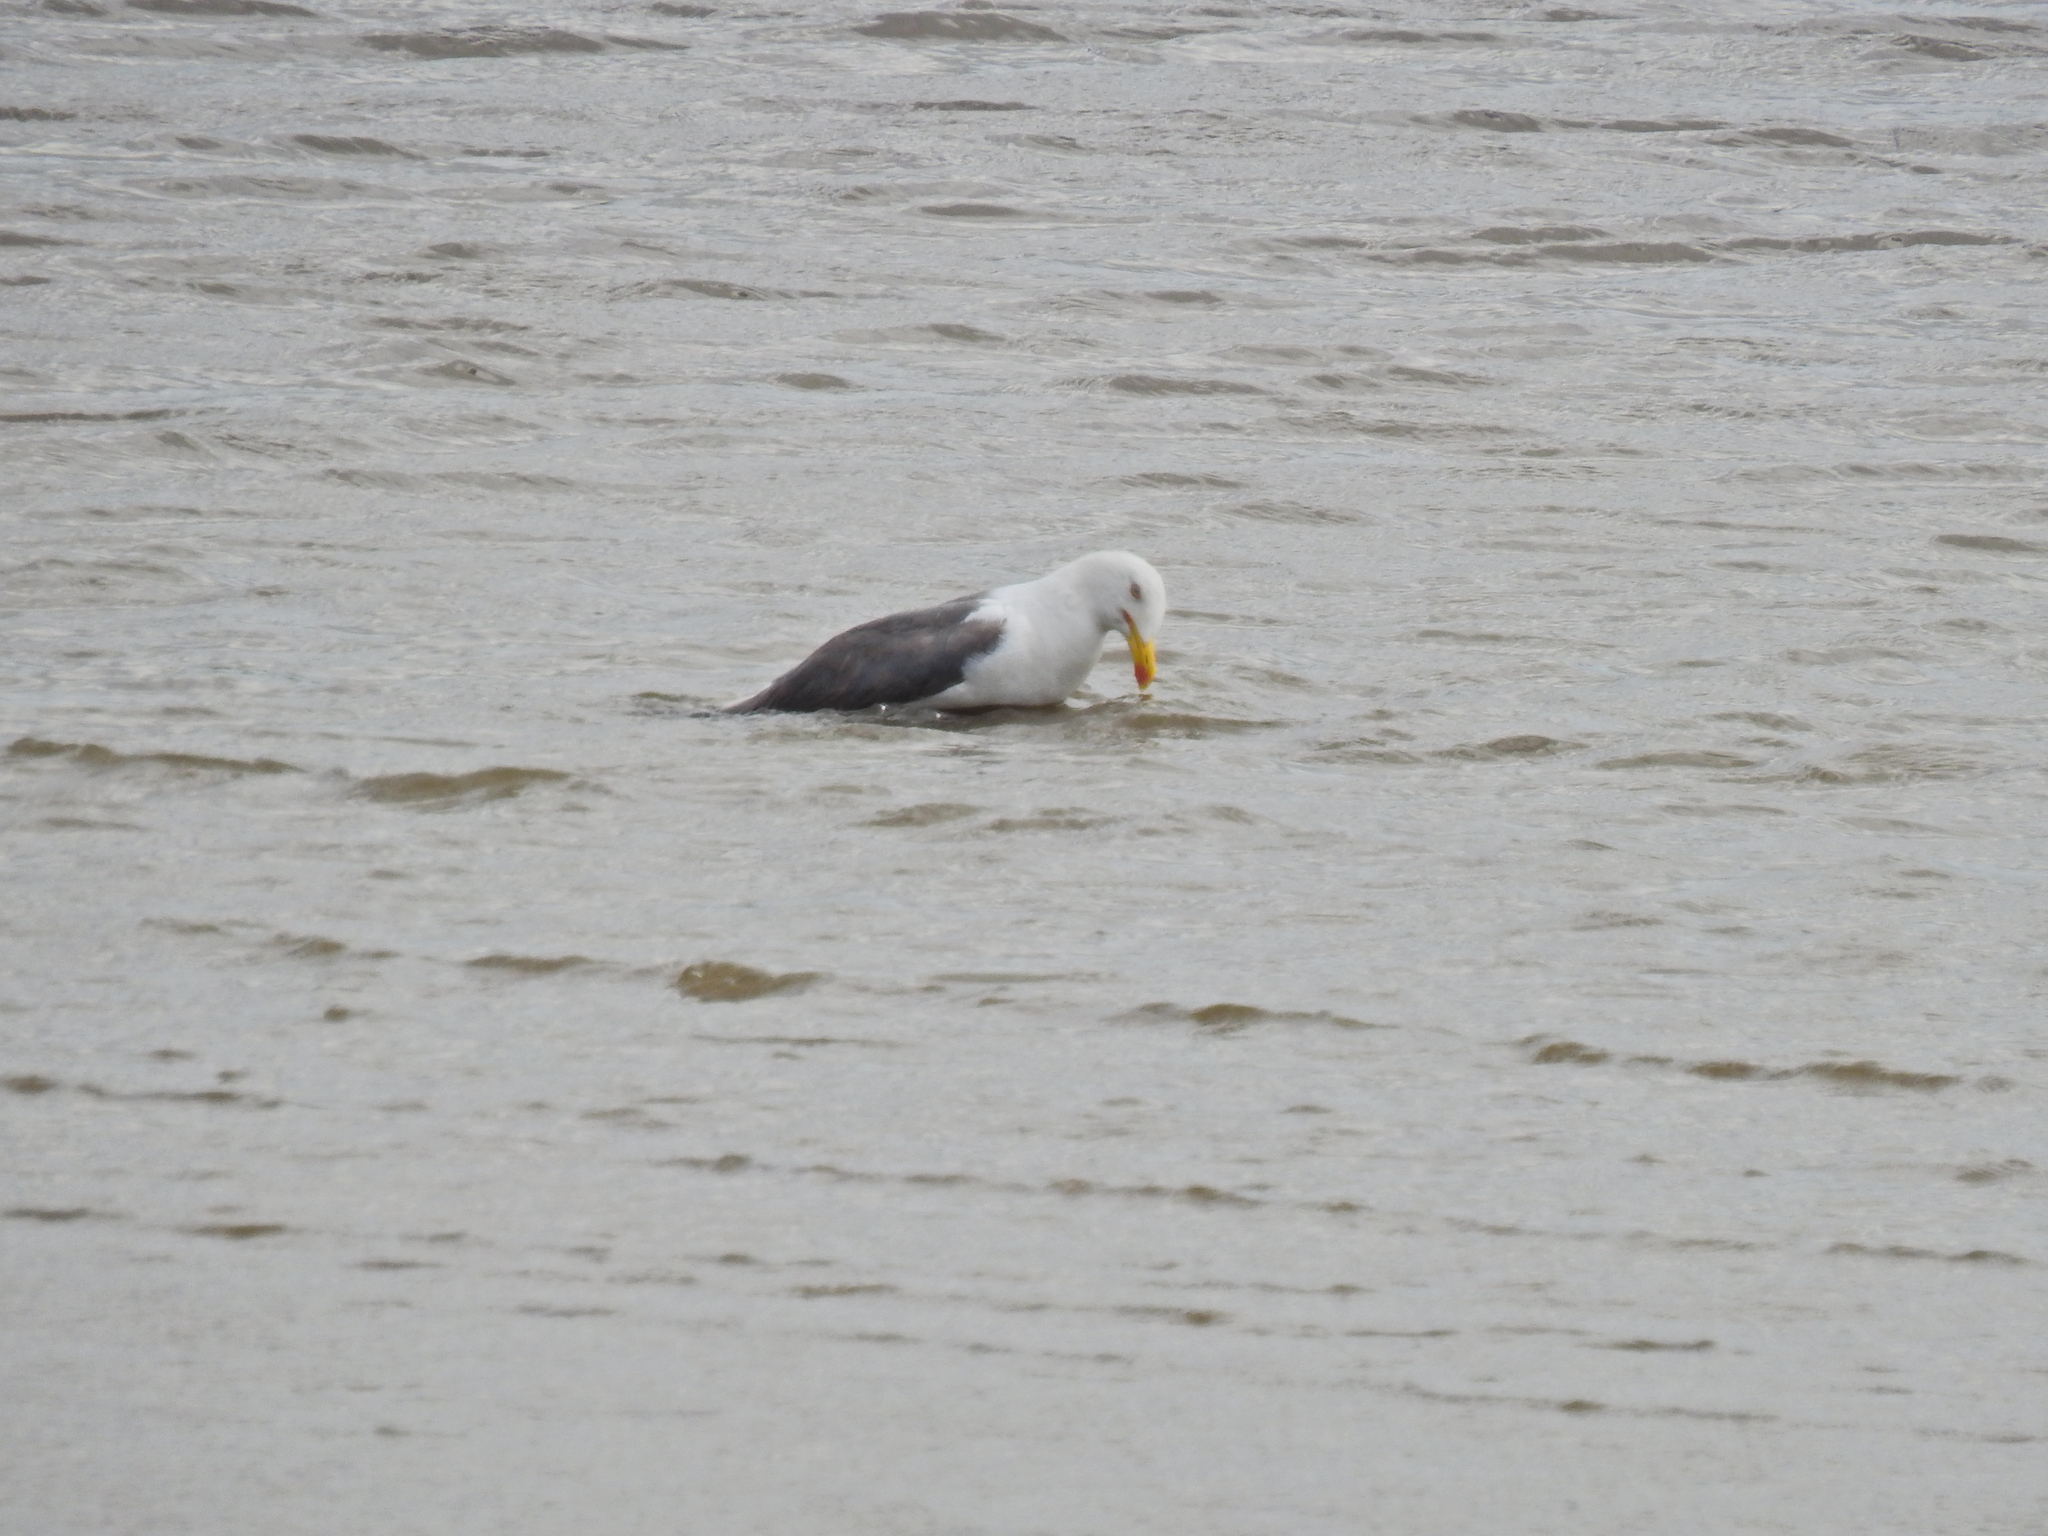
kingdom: Animalia
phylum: Chordata
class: Aves
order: Charadriiformes
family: Laridae
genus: Larus
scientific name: Larus fuscus
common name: Lesser black-backed gull
